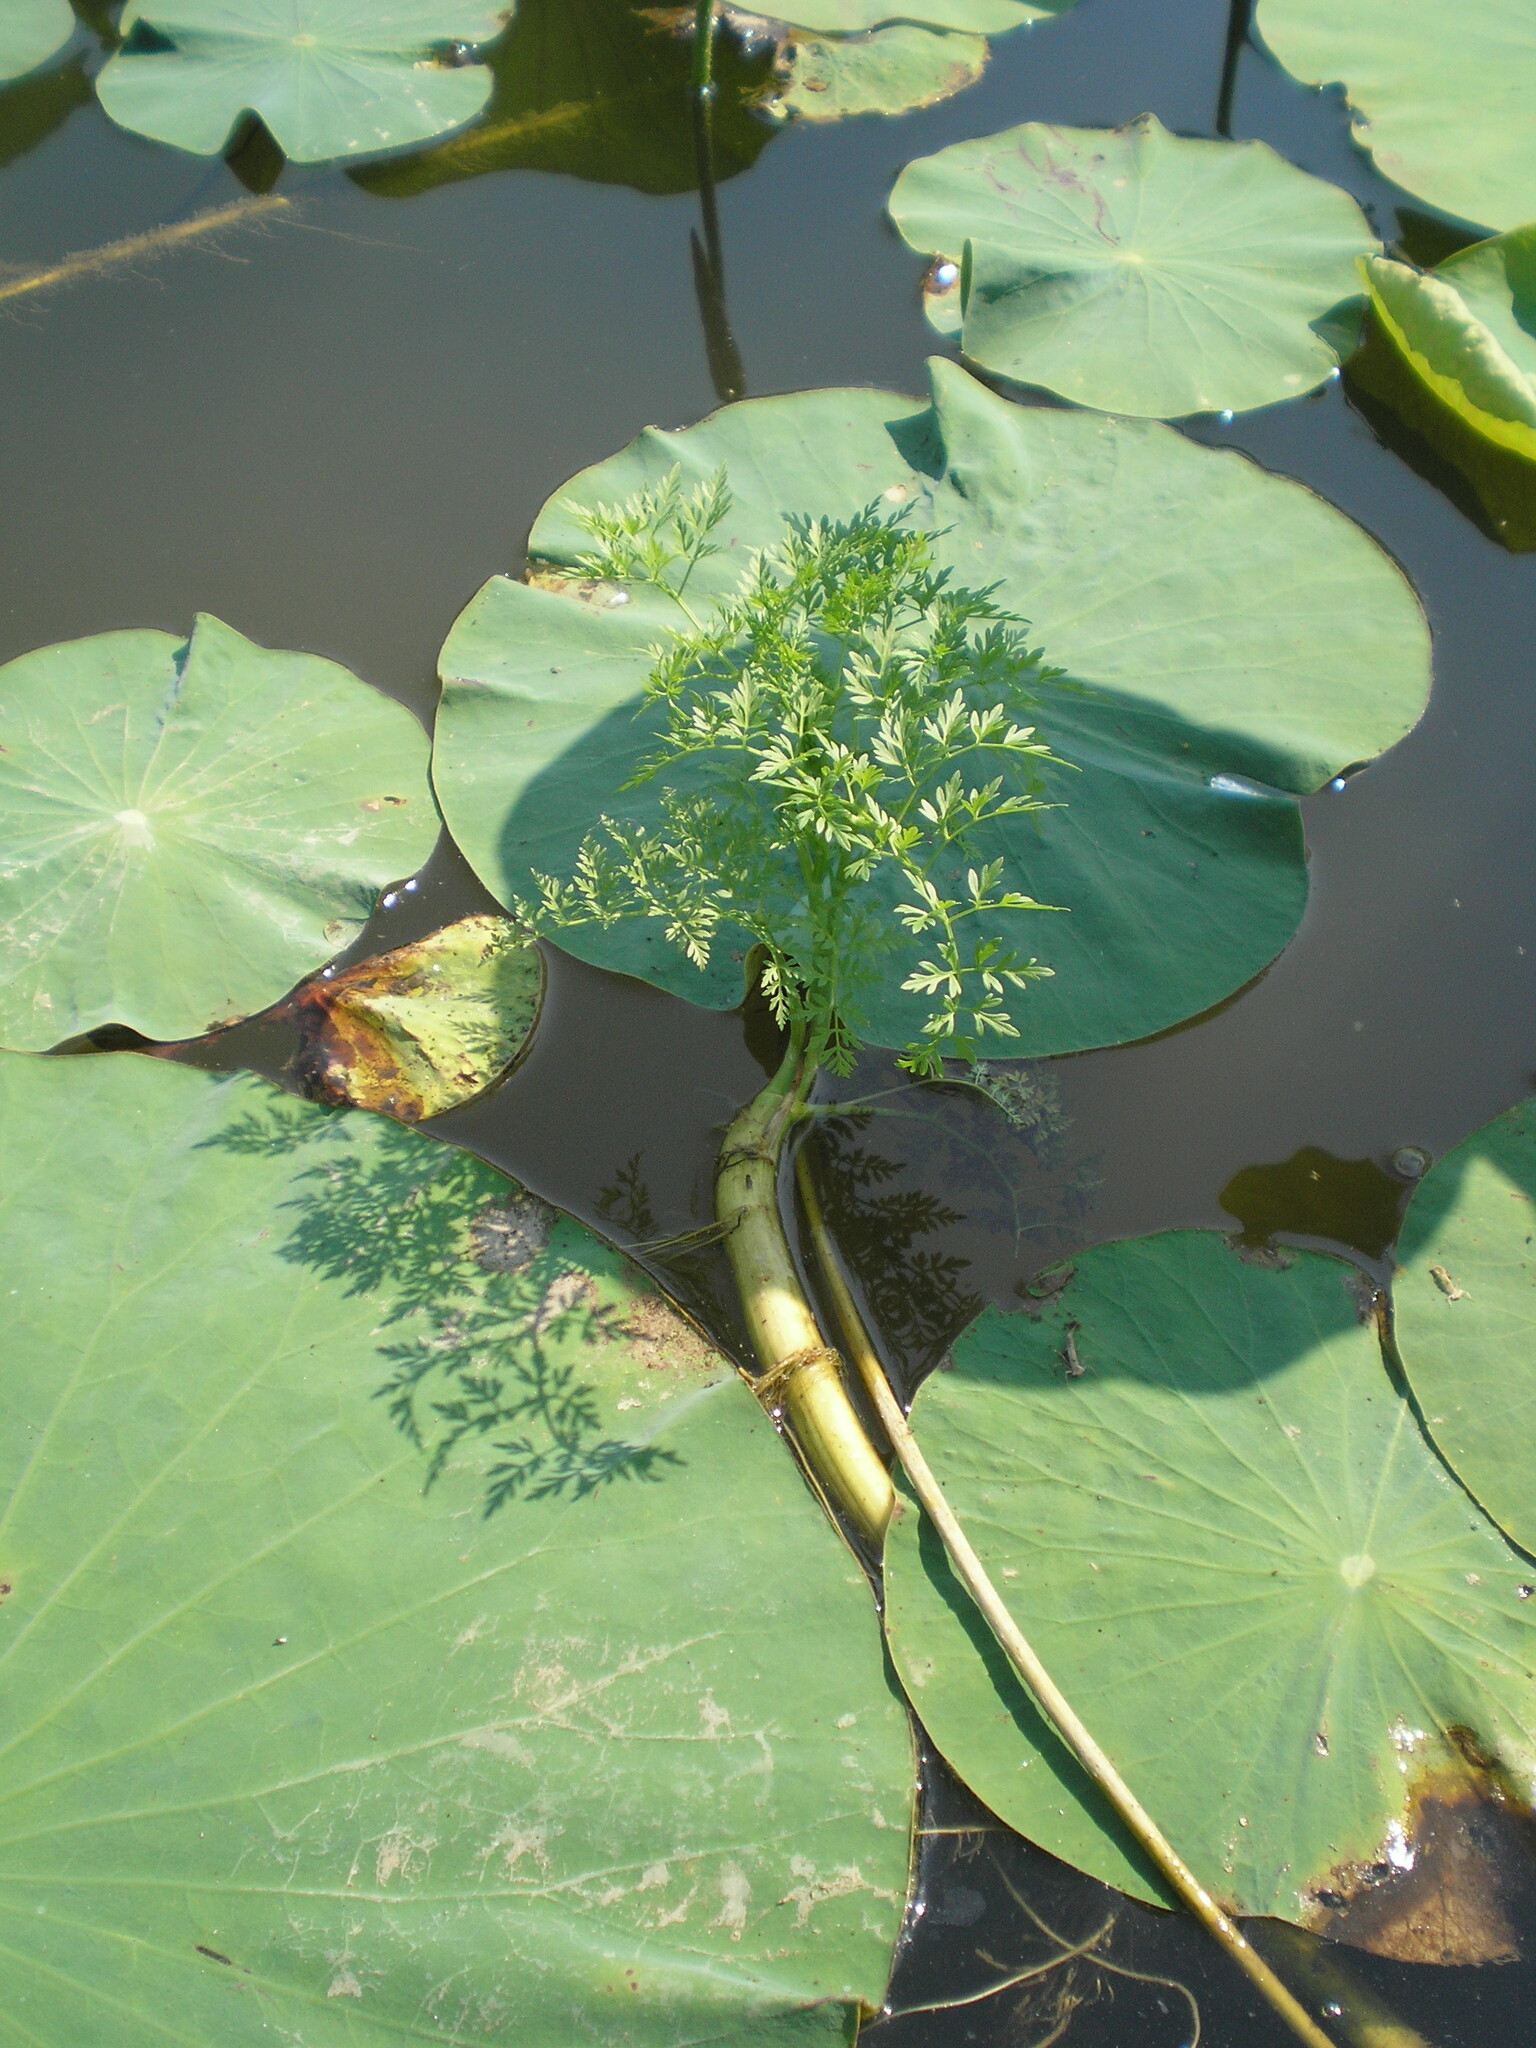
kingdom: Plantae
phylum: Tracheophyta
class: Magnoliopsida
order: Apiales
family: Apiaceae
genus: Oenanthe
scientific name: Oenanthe aquatica
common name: Fine-leaved water-dropwort
